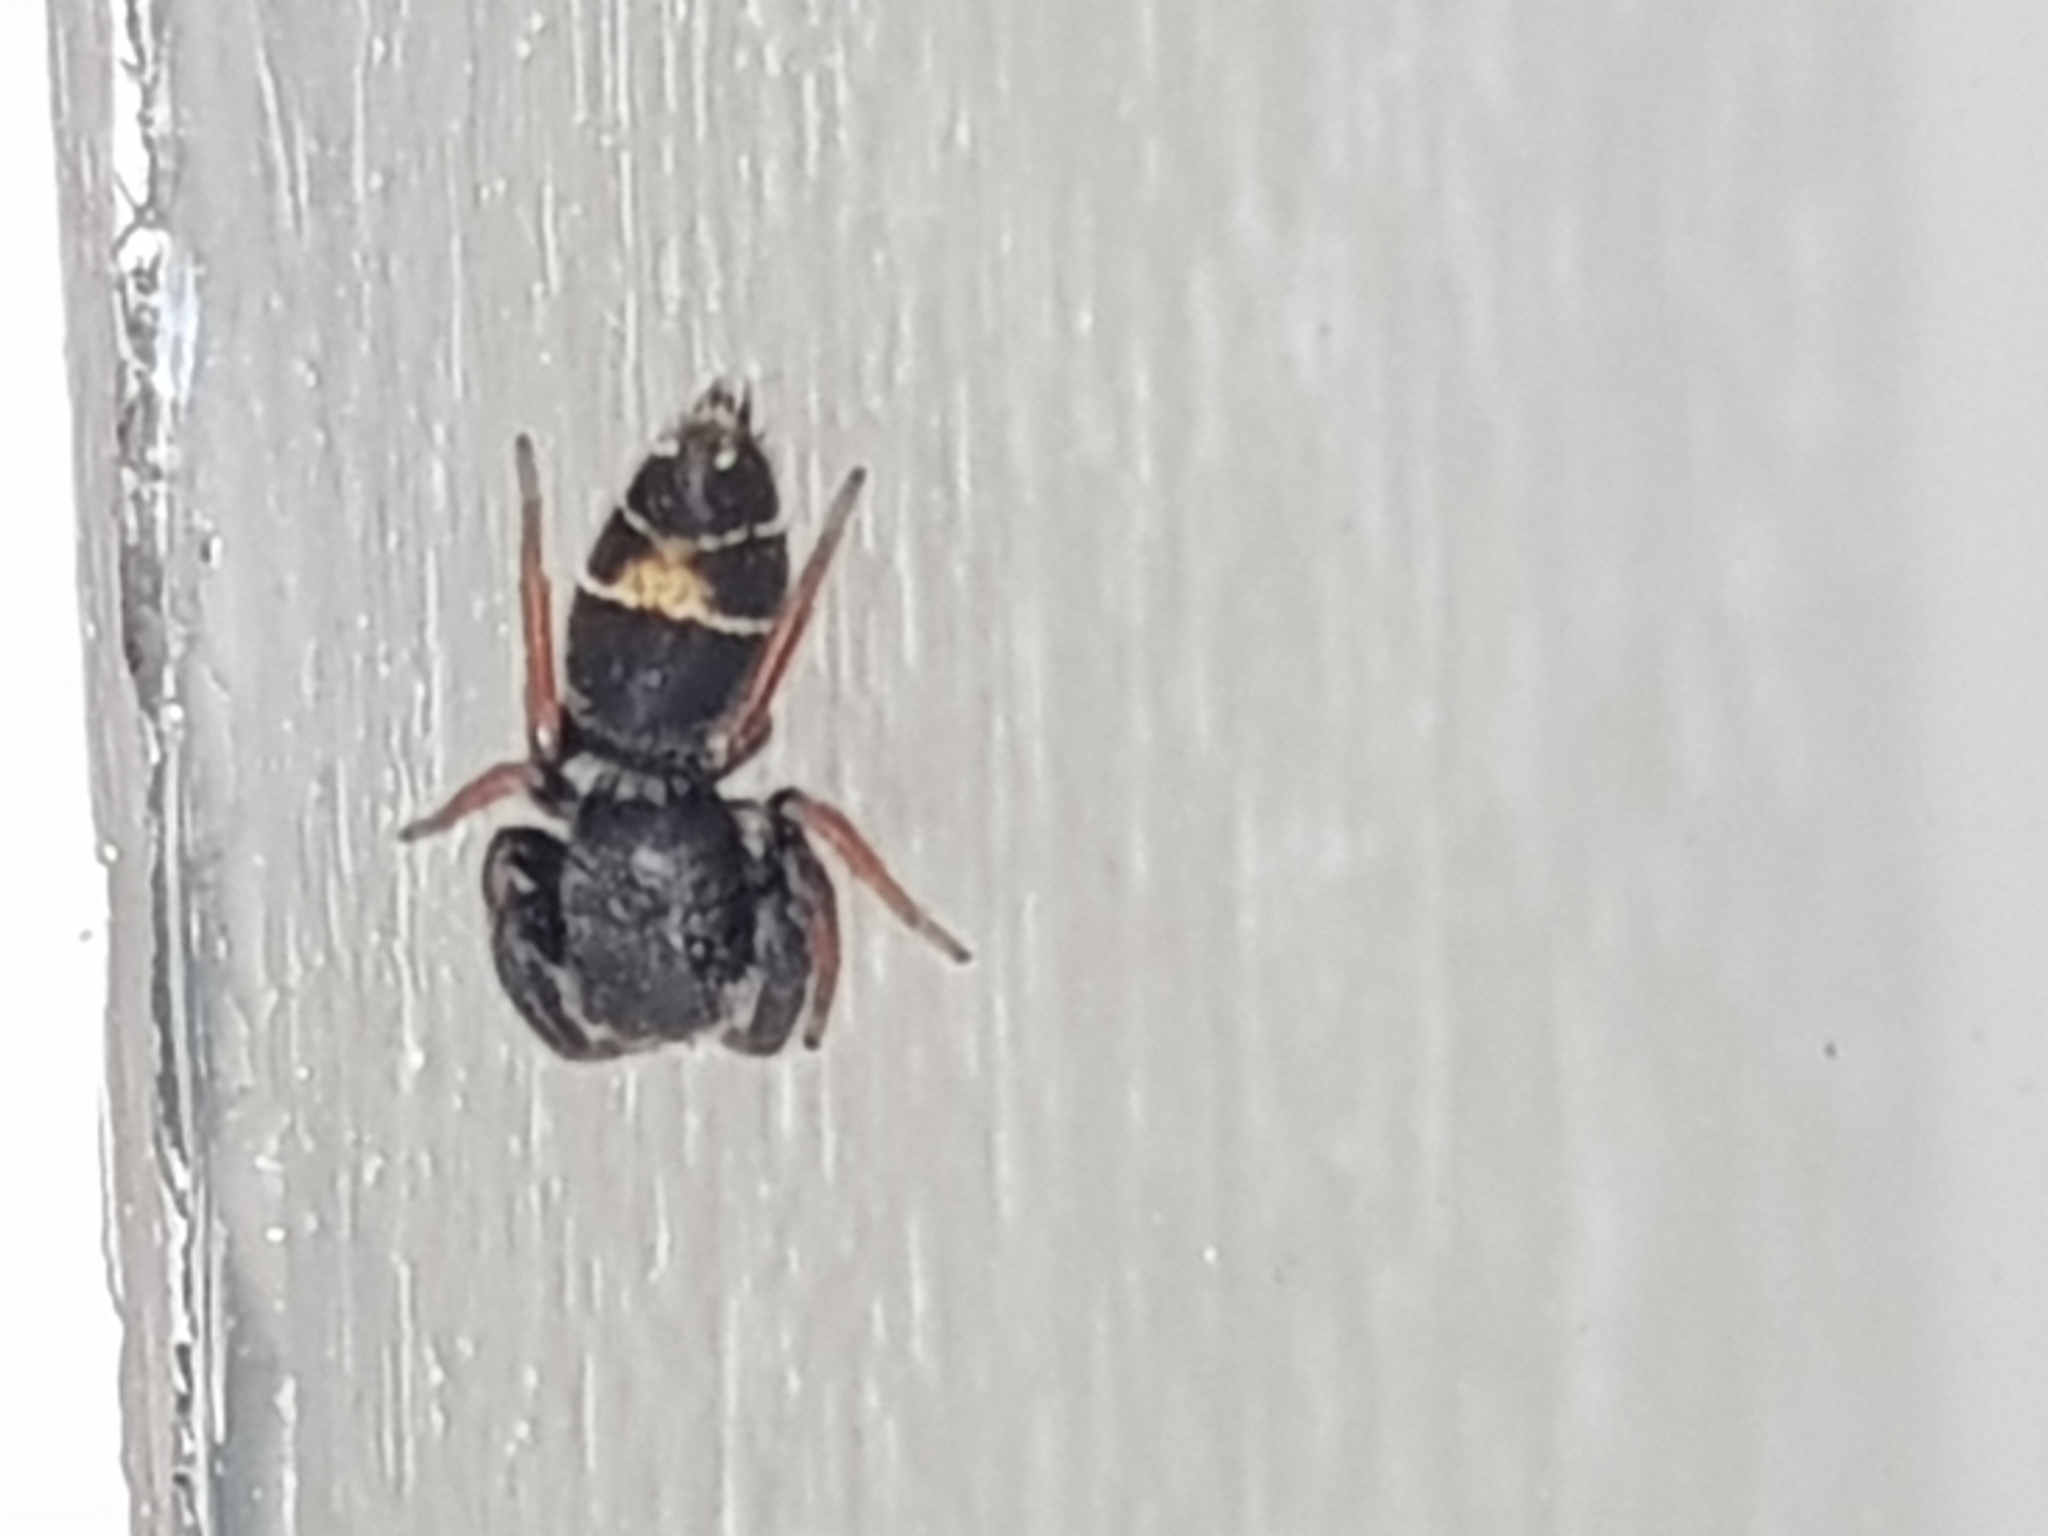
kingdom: Animalia
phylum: Arthropoda
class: Arachnida
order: Araneae
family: Salticidae
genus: Apricia
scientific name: Apricia jovialis
